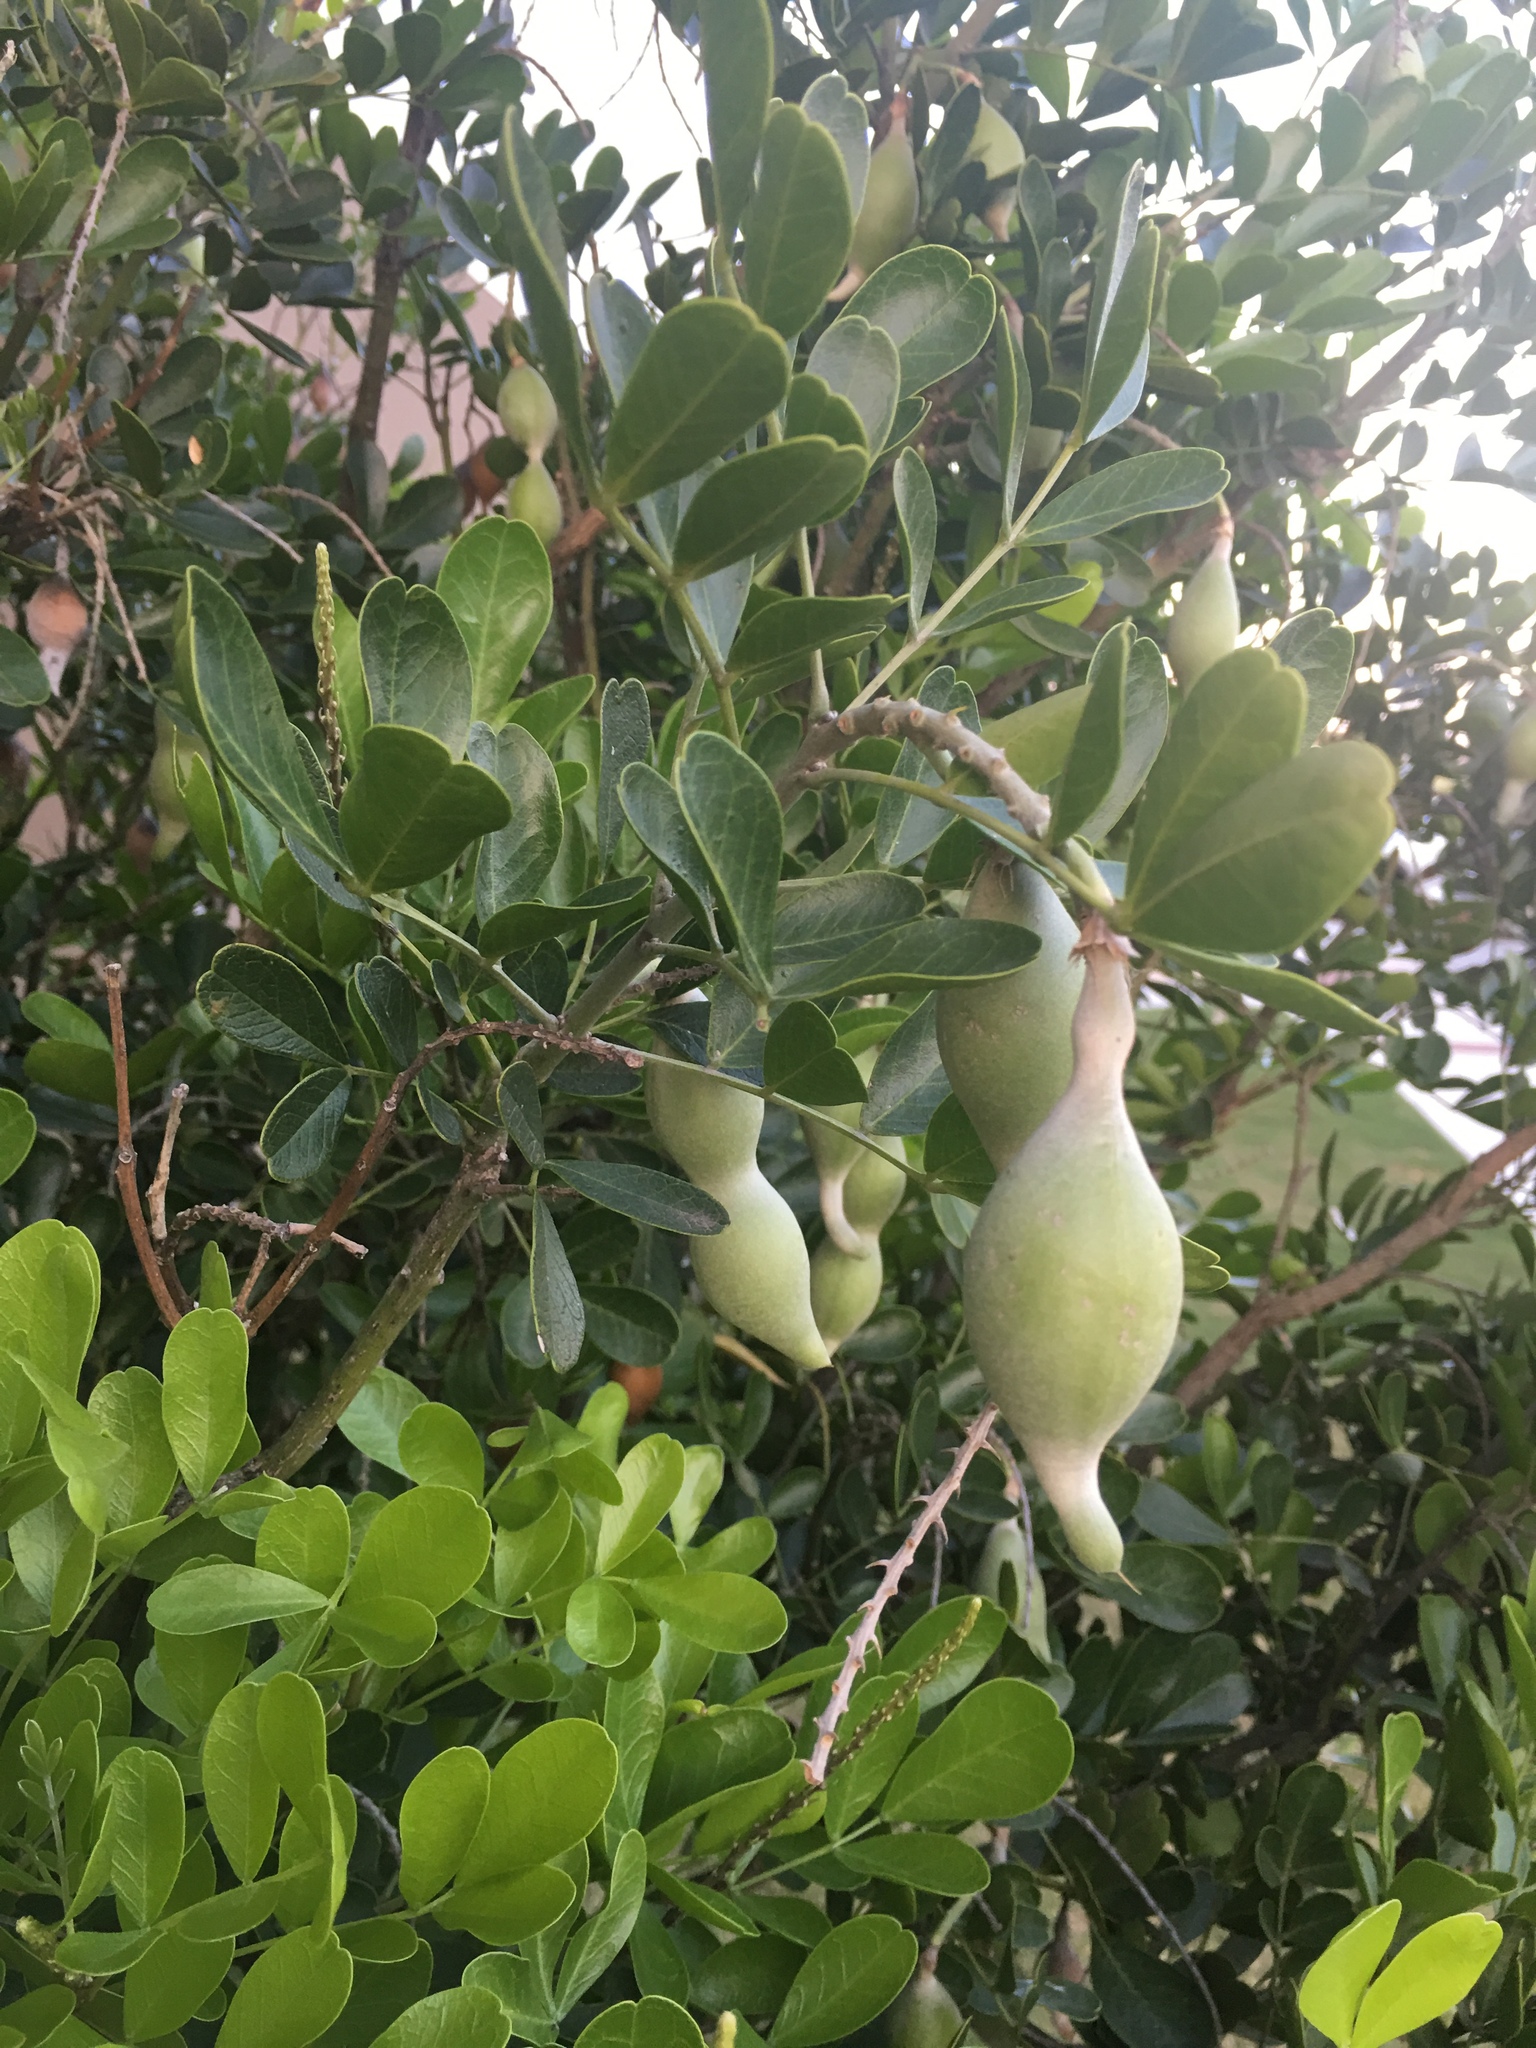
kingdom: Plantae
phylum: Tracheophyta
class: Magnoliopsida
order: Fabales
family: Fabaceae
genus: Dermatophyllum
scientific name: Dermatophyllum secundiflorum
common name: Texas-mountain-laurel
